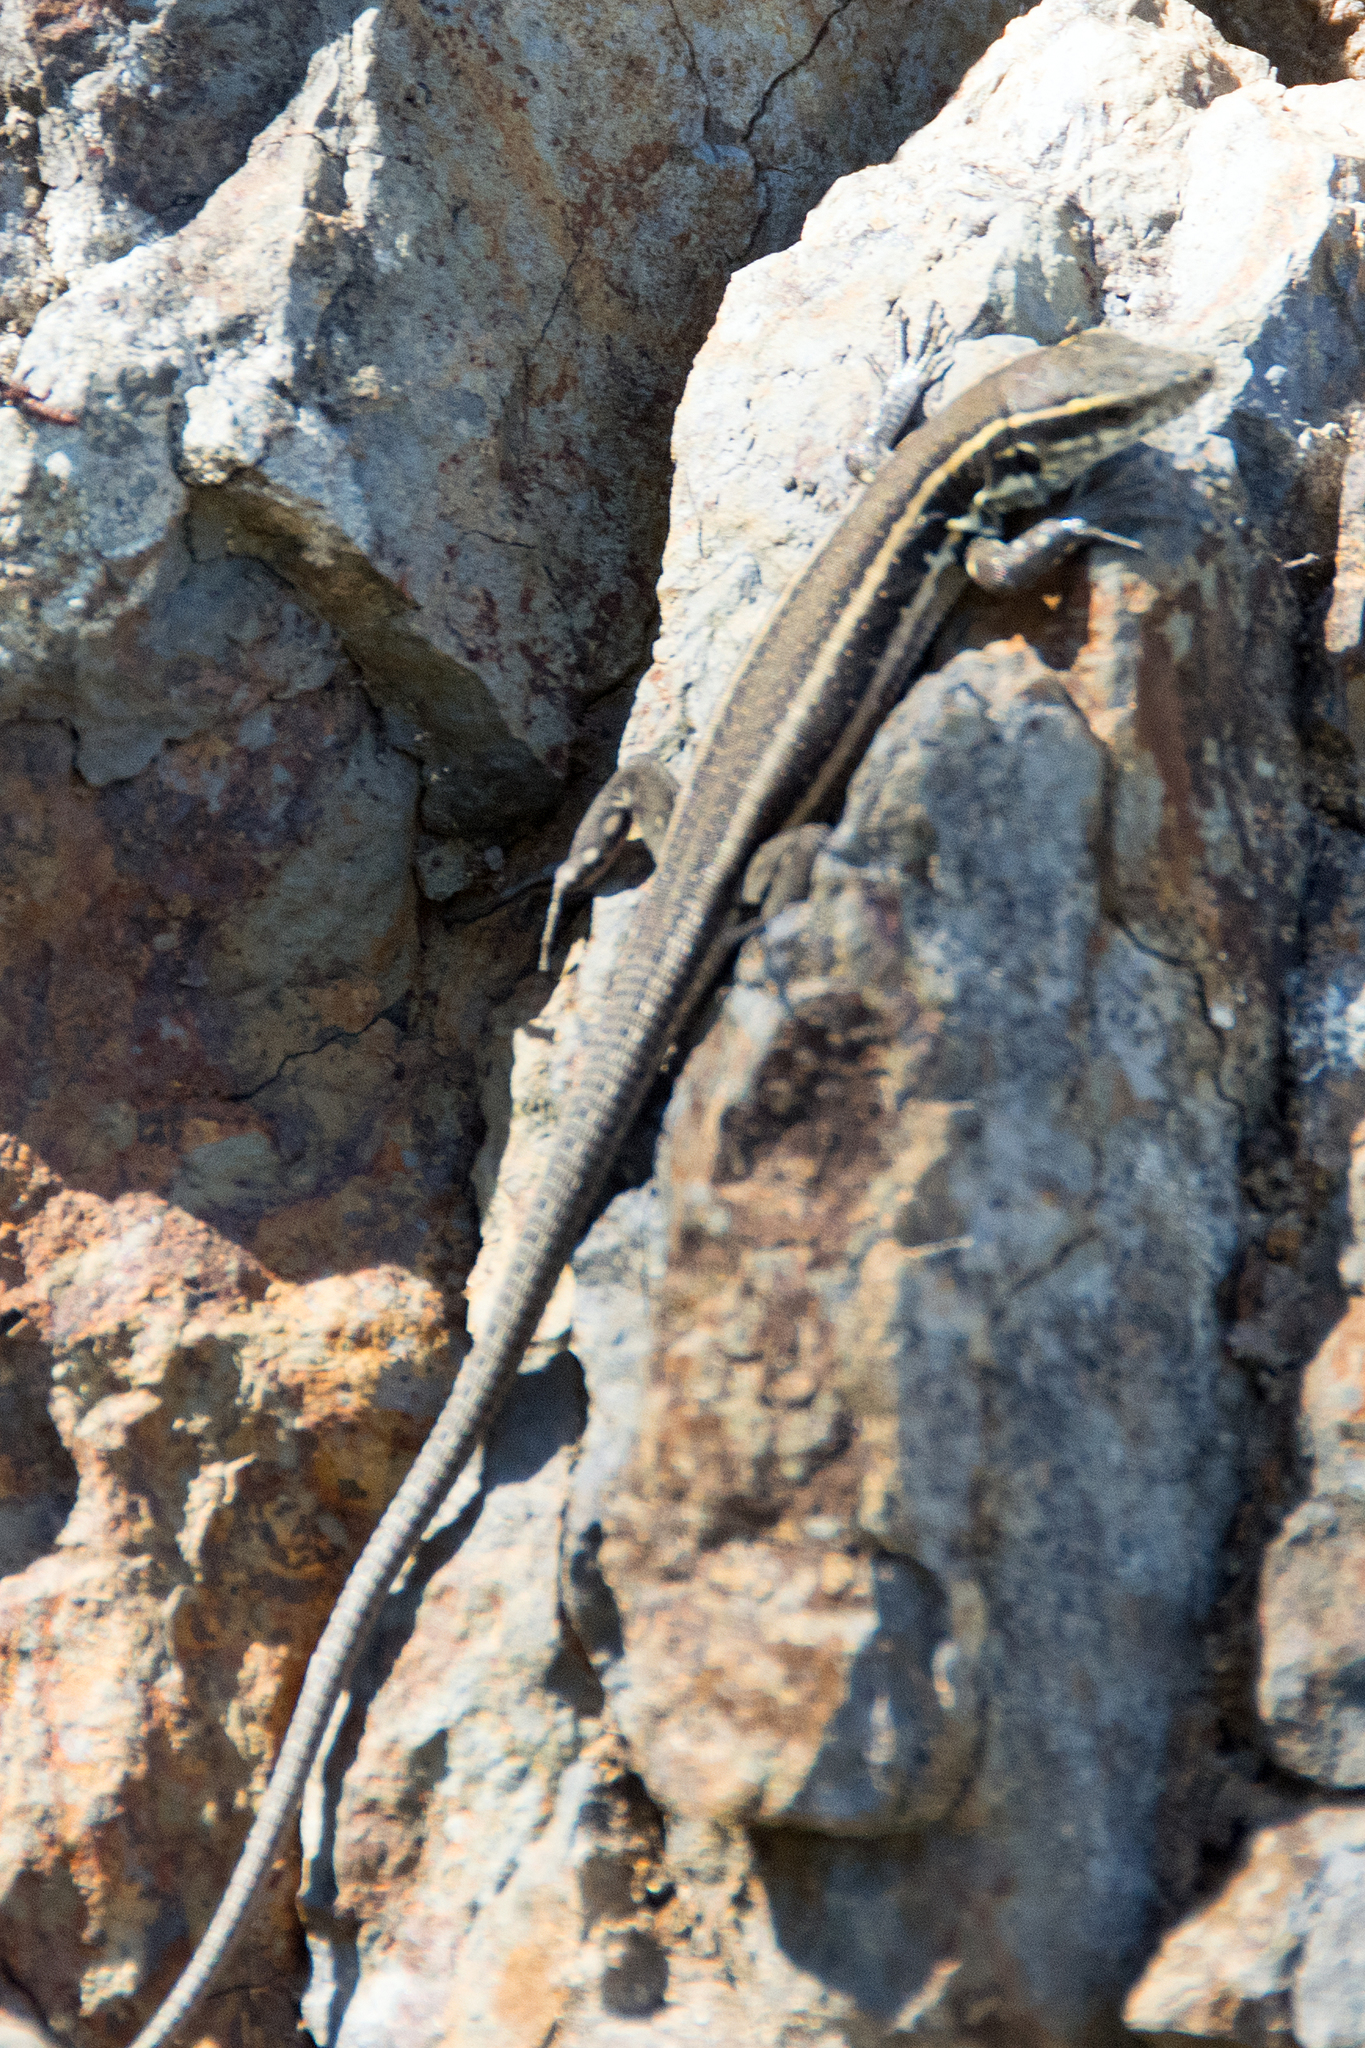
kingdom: Animalia
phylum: Chordata
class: Squamata
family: Lacertidae
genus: Gallotia
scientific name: Gallotia caesaris
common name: Boettger's lizard
